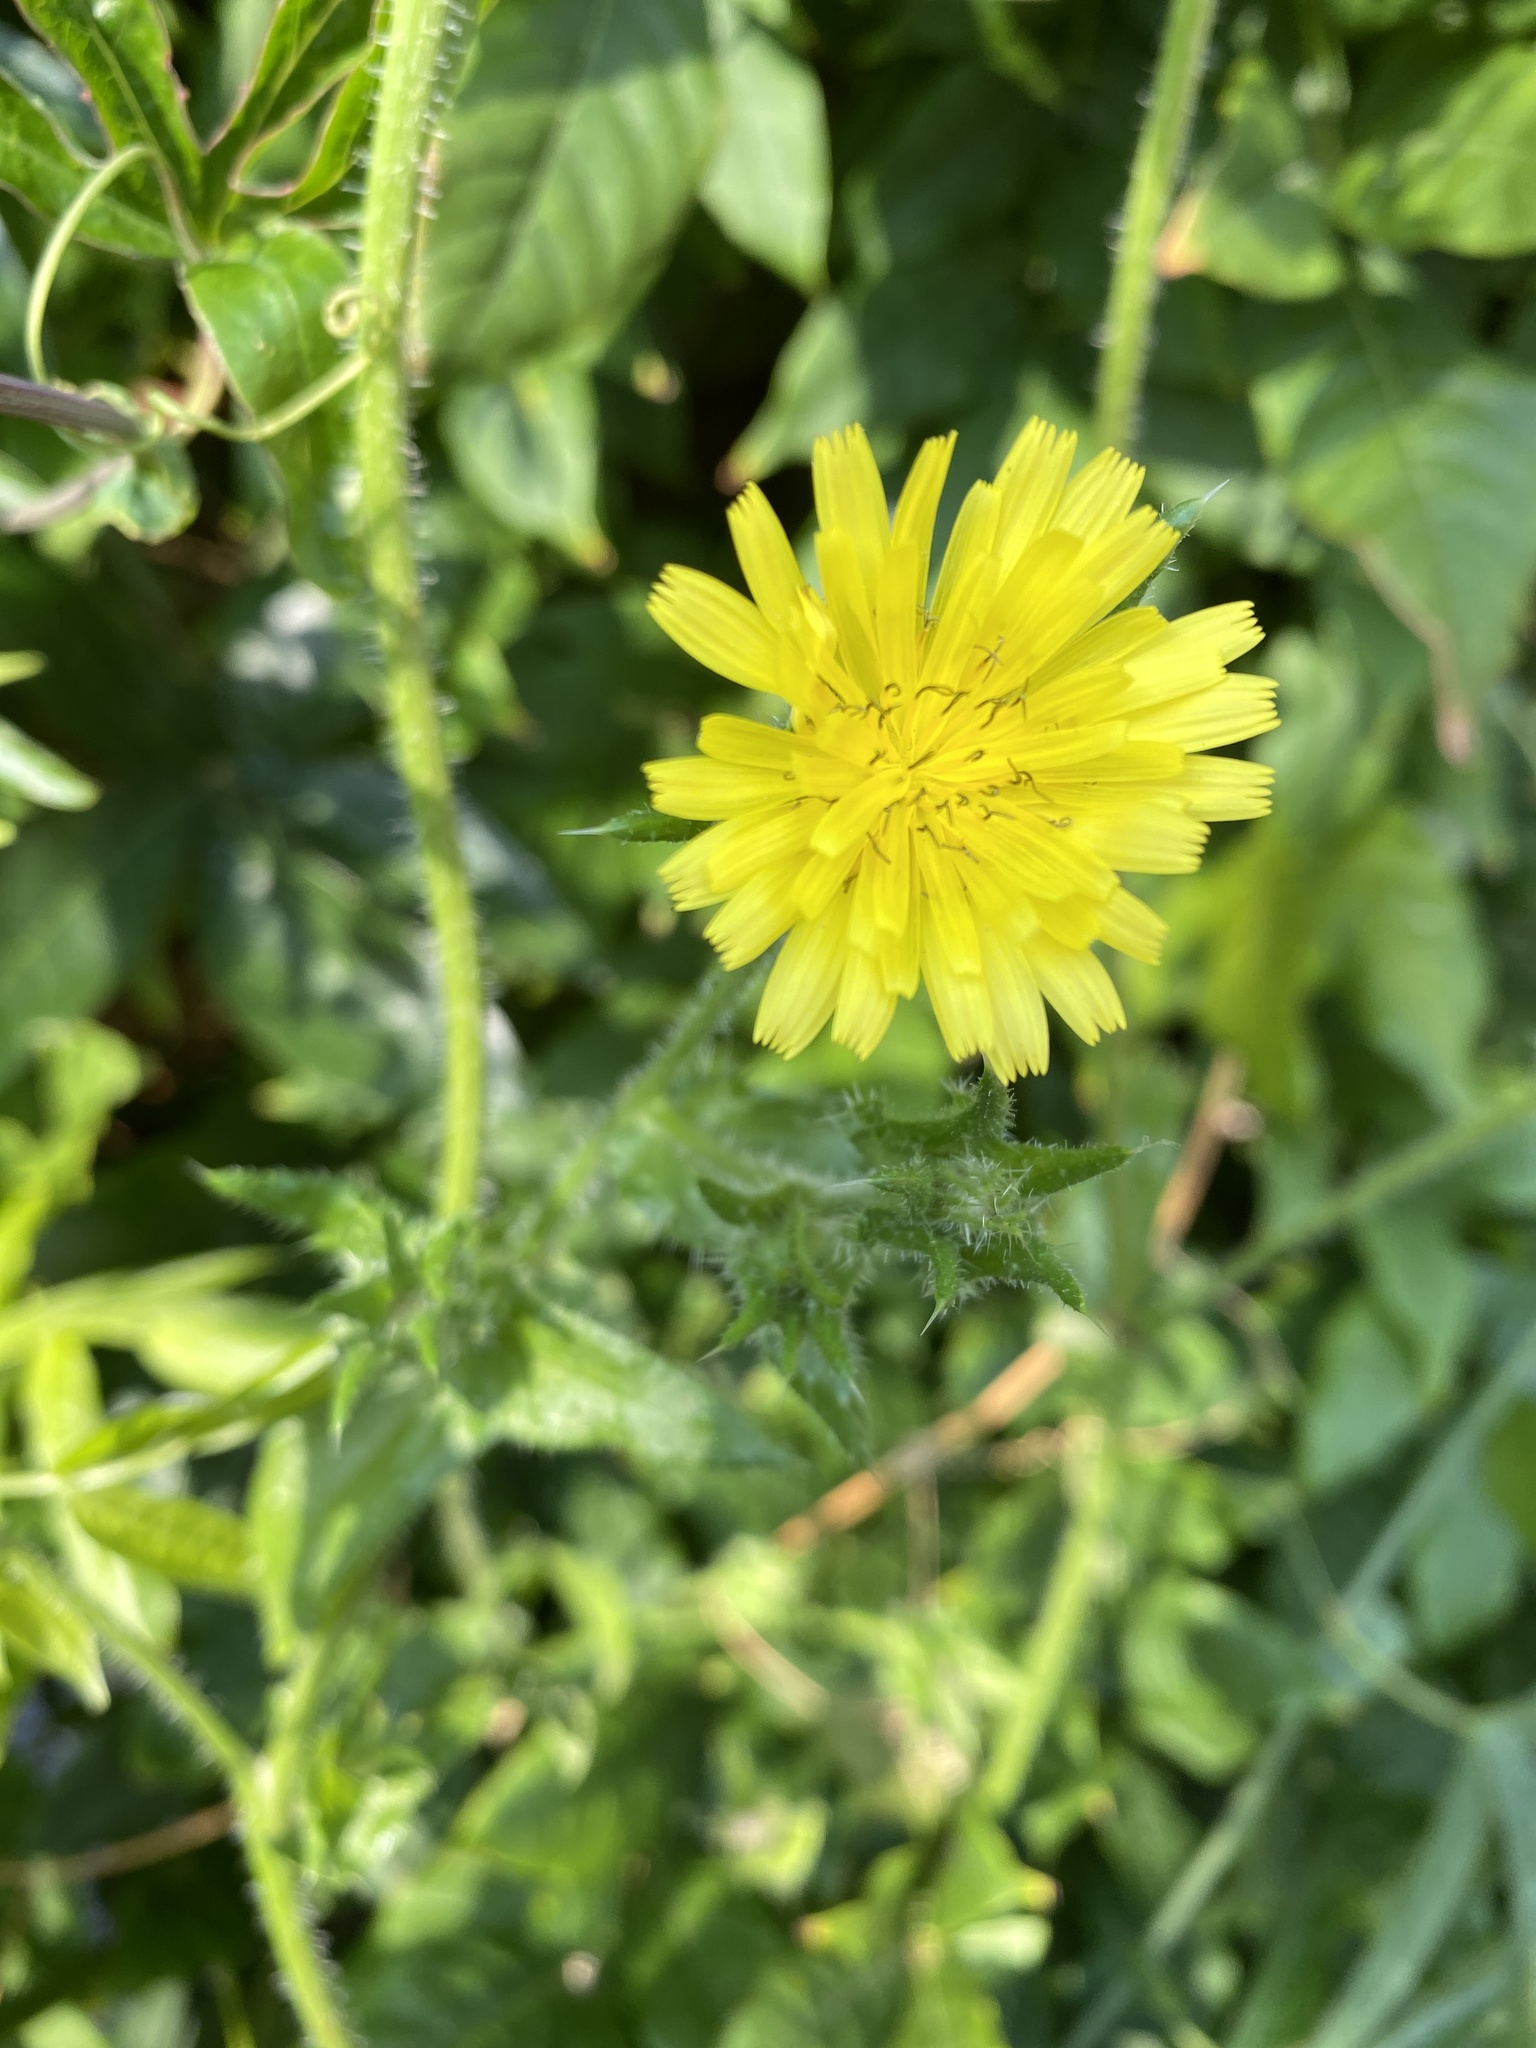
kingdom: Plantae
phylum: Tracheophyta
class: Magnoliopsida
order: Asterales
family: Asteraceae
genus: Helminthotheca
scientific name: Helminthotheca echioides
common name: Ox-tongue
